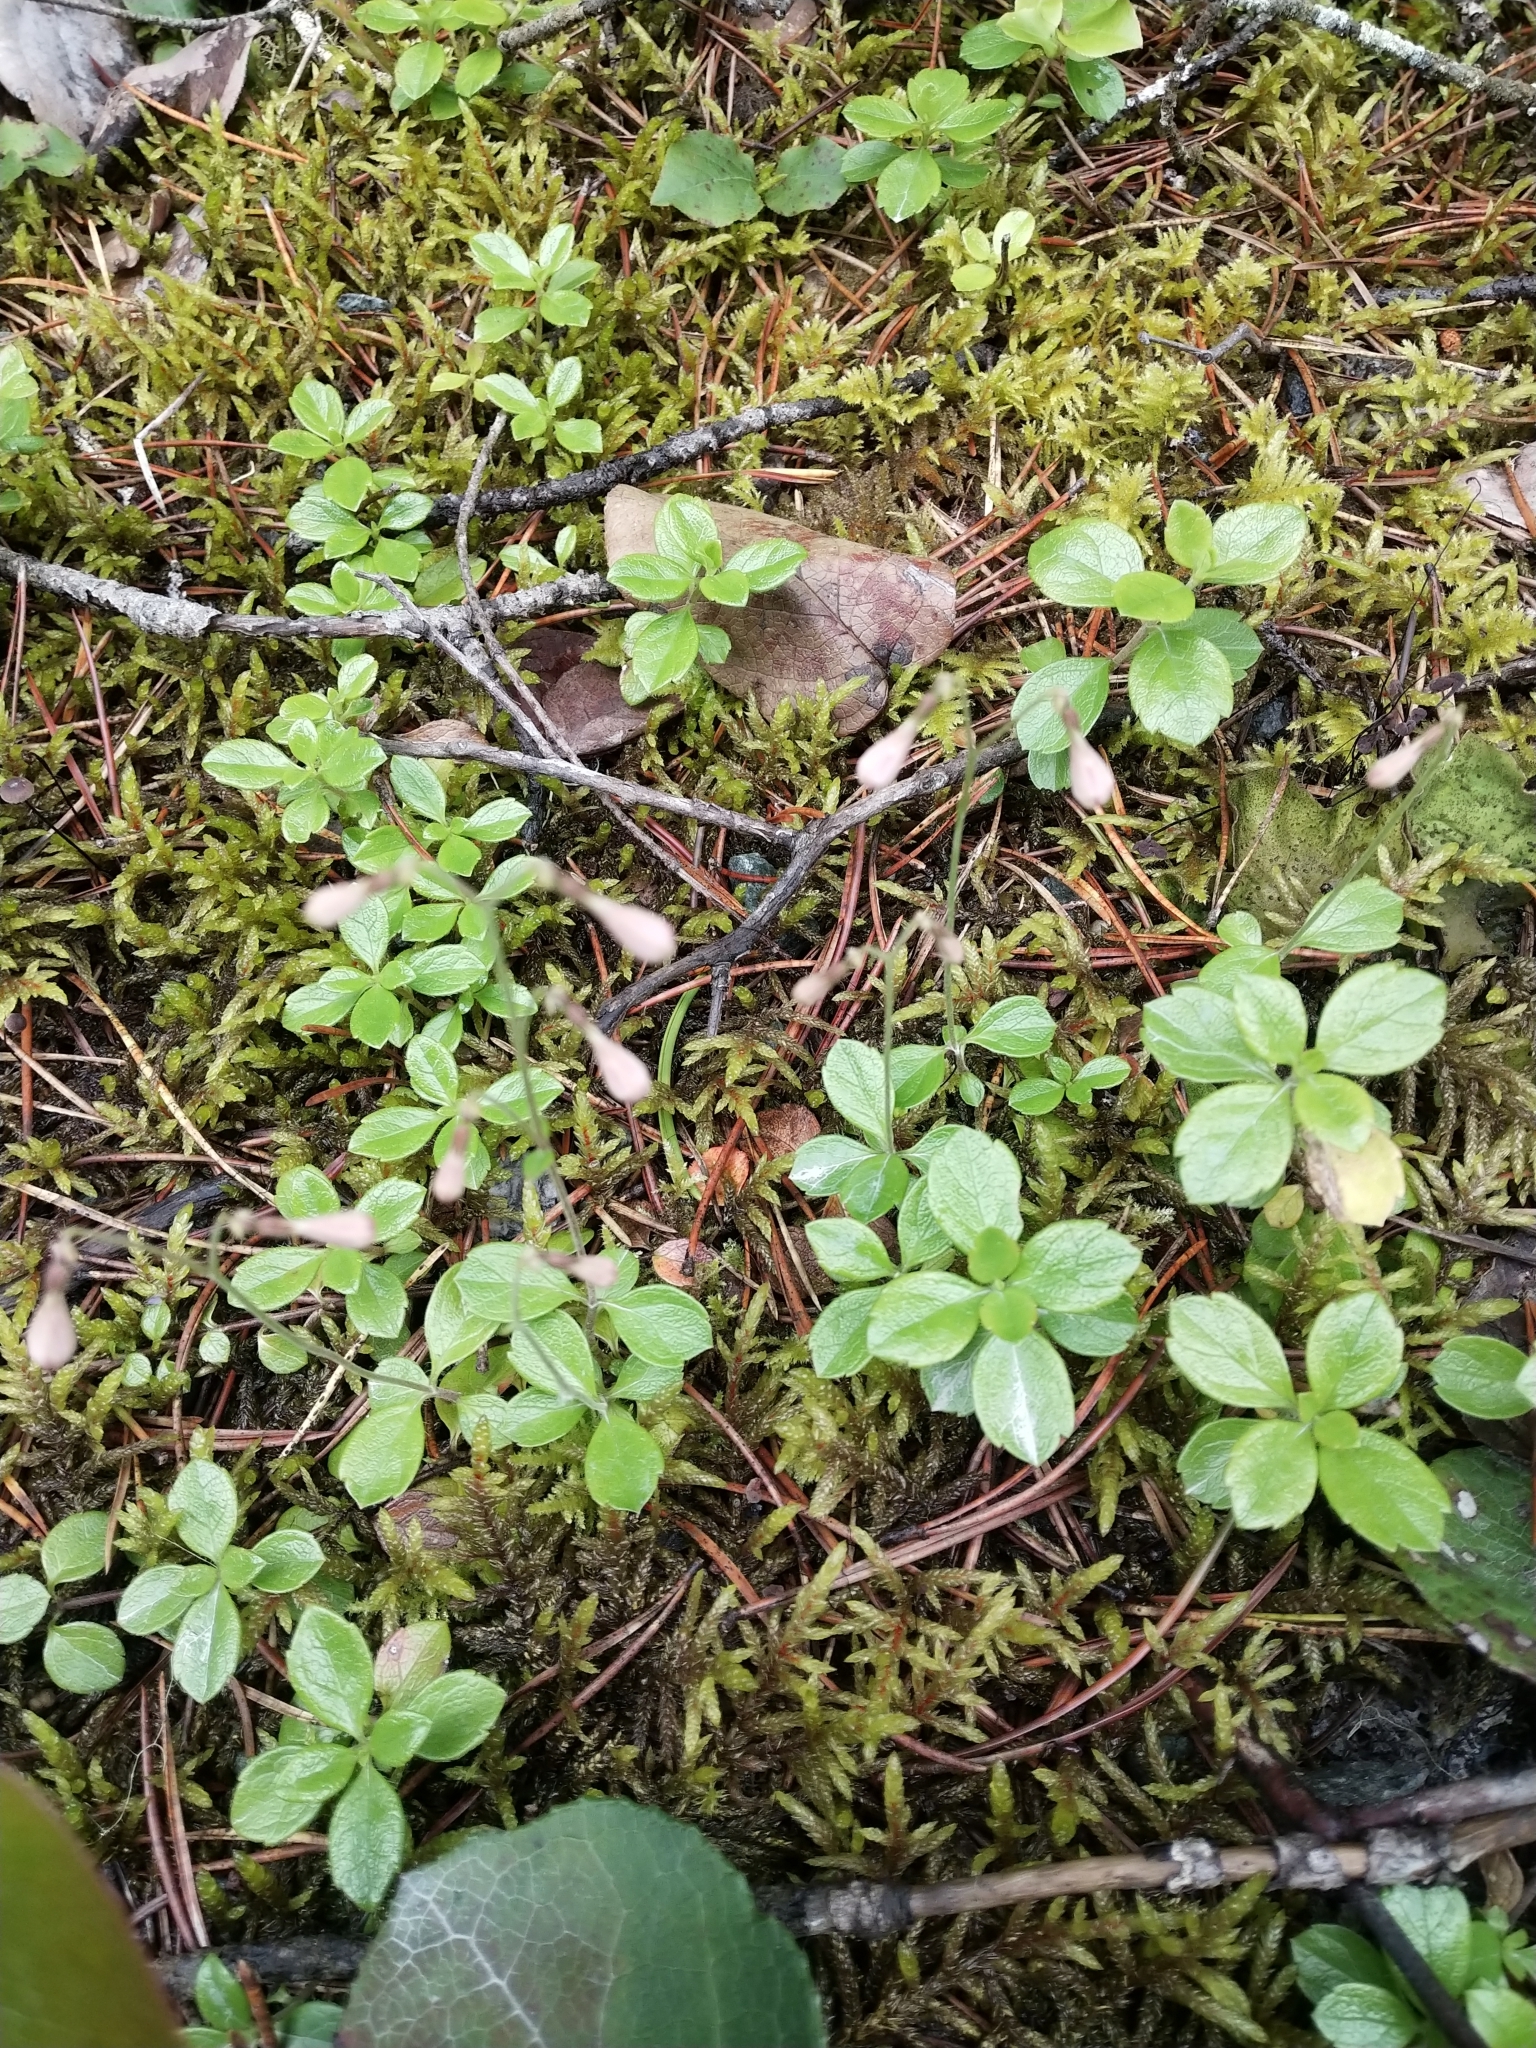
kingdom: Plantae
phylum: Tracheophyta
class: Magnoliopsida
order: Dipsacales
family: Caprifoliaceae
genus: Linnaea
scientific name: Linnaea borealis
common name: Twinflower
